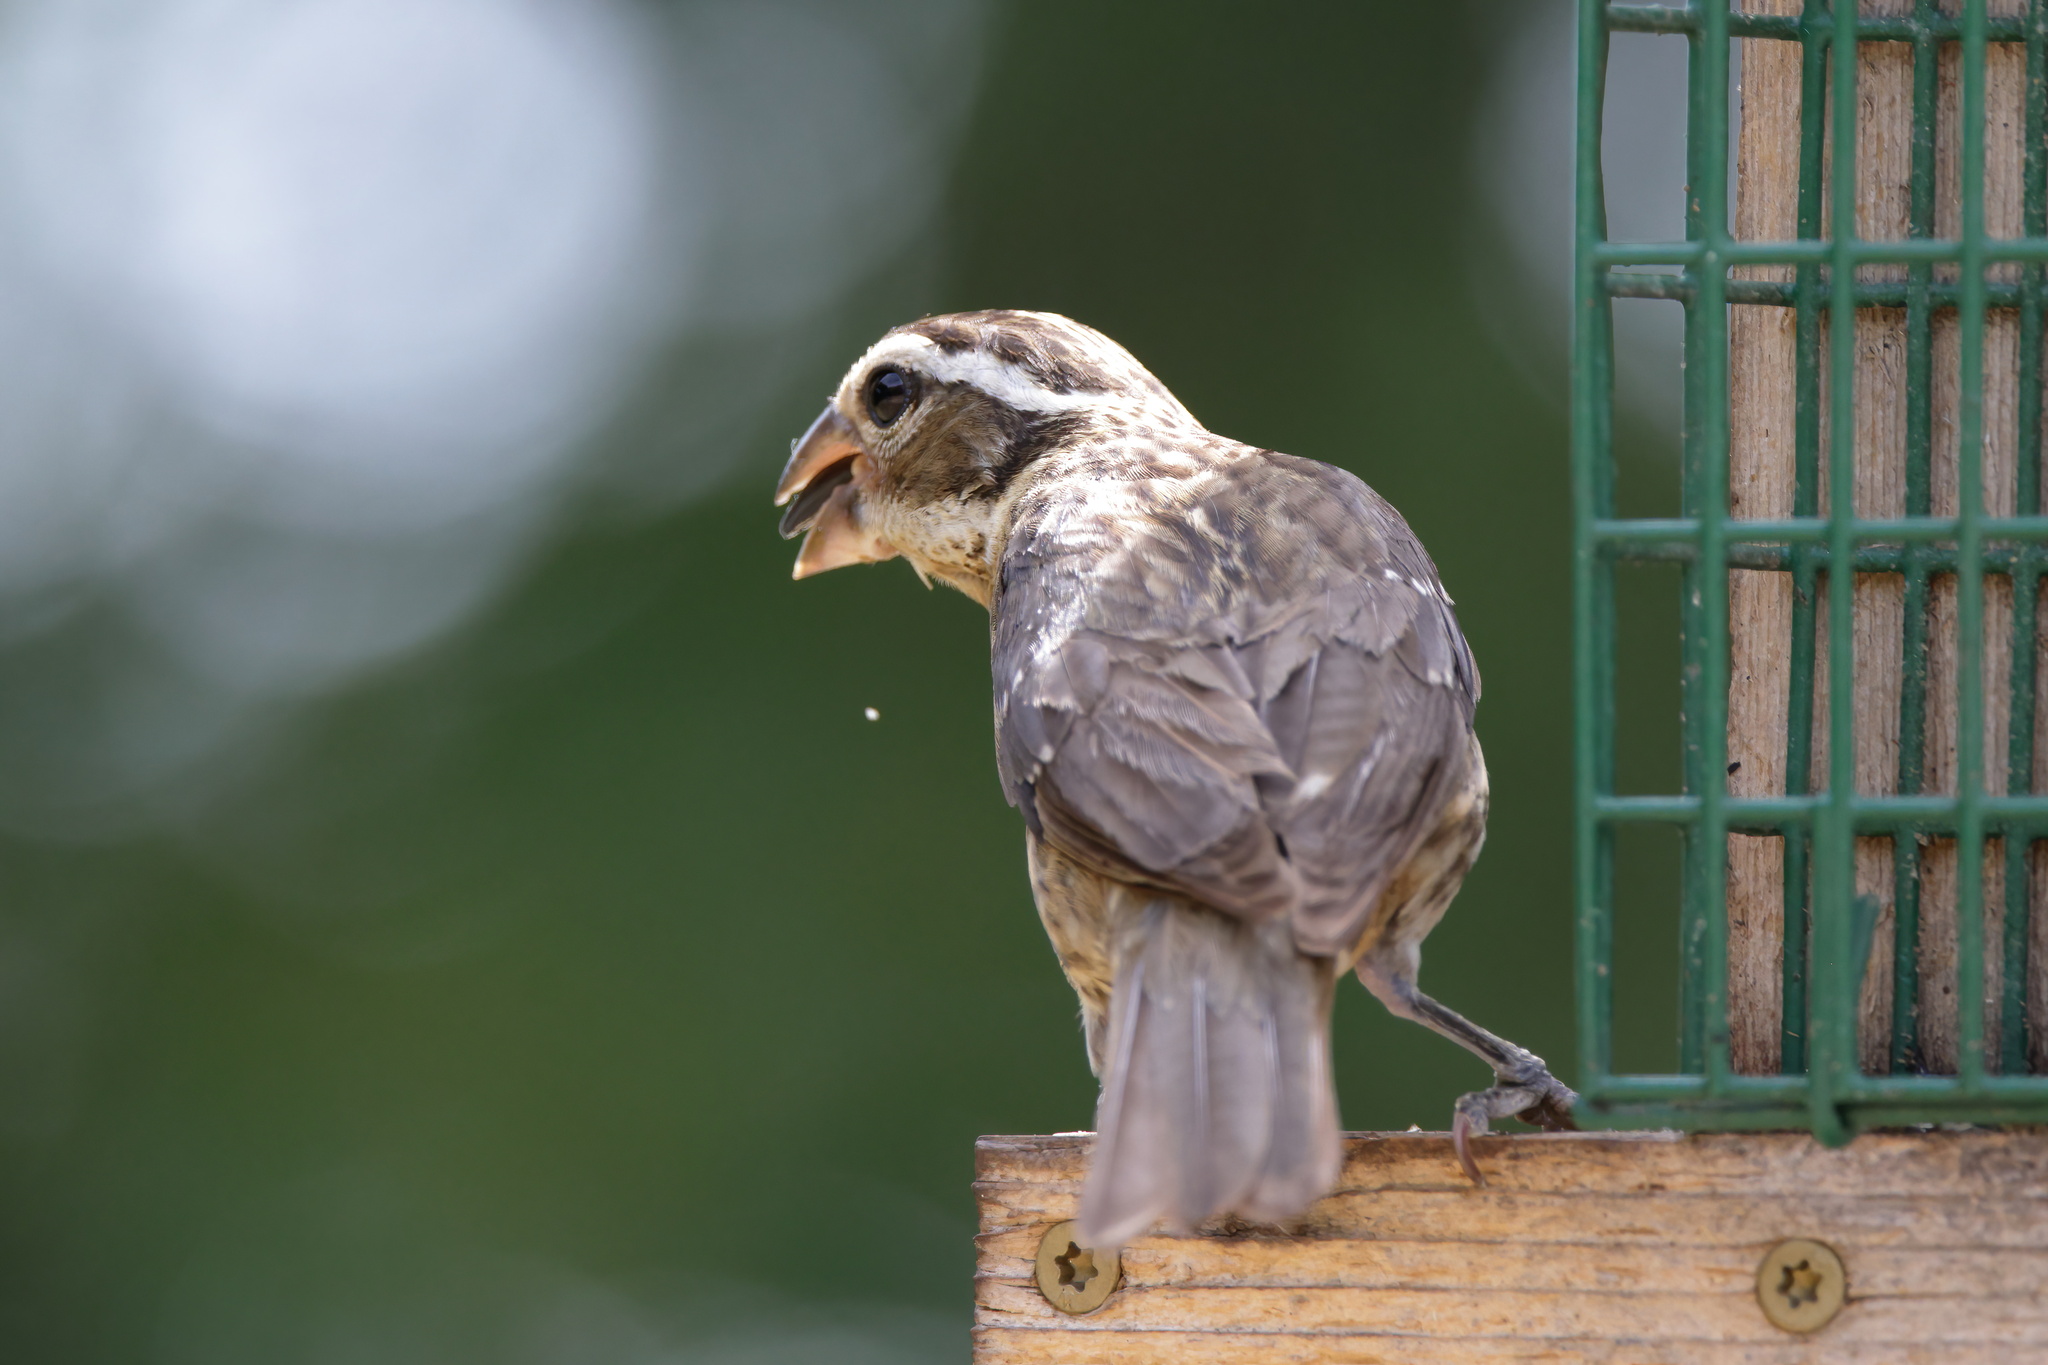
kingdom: Animalia
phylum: Chordata
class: Aves
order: Passeriformes
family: Cardinalidae
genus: Pheucticus
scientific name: Pheucticus ludovicianus
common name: Rose-breasted grosbeak
